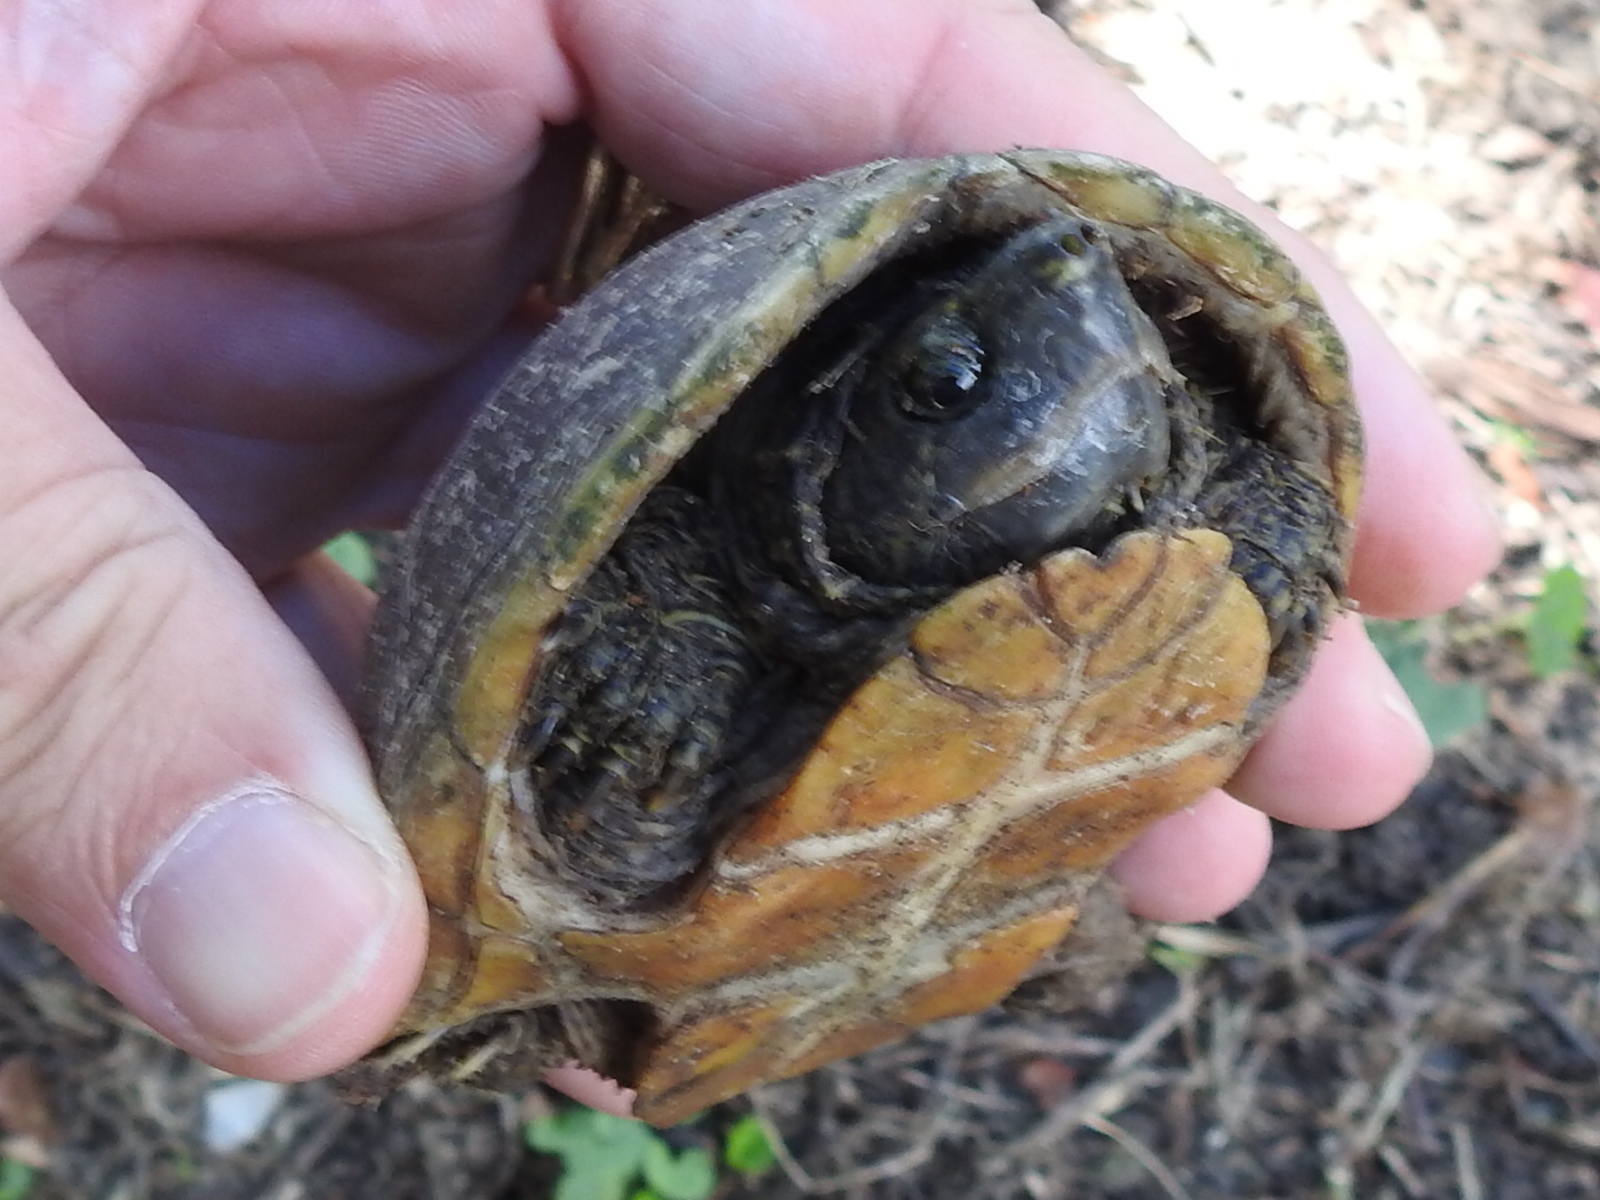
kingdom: Animalia
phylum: Chordata
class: Testudines
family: Kinosternidae
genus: Sternotherus
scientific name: Sternotherus odoratus
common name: Common musk turtle
